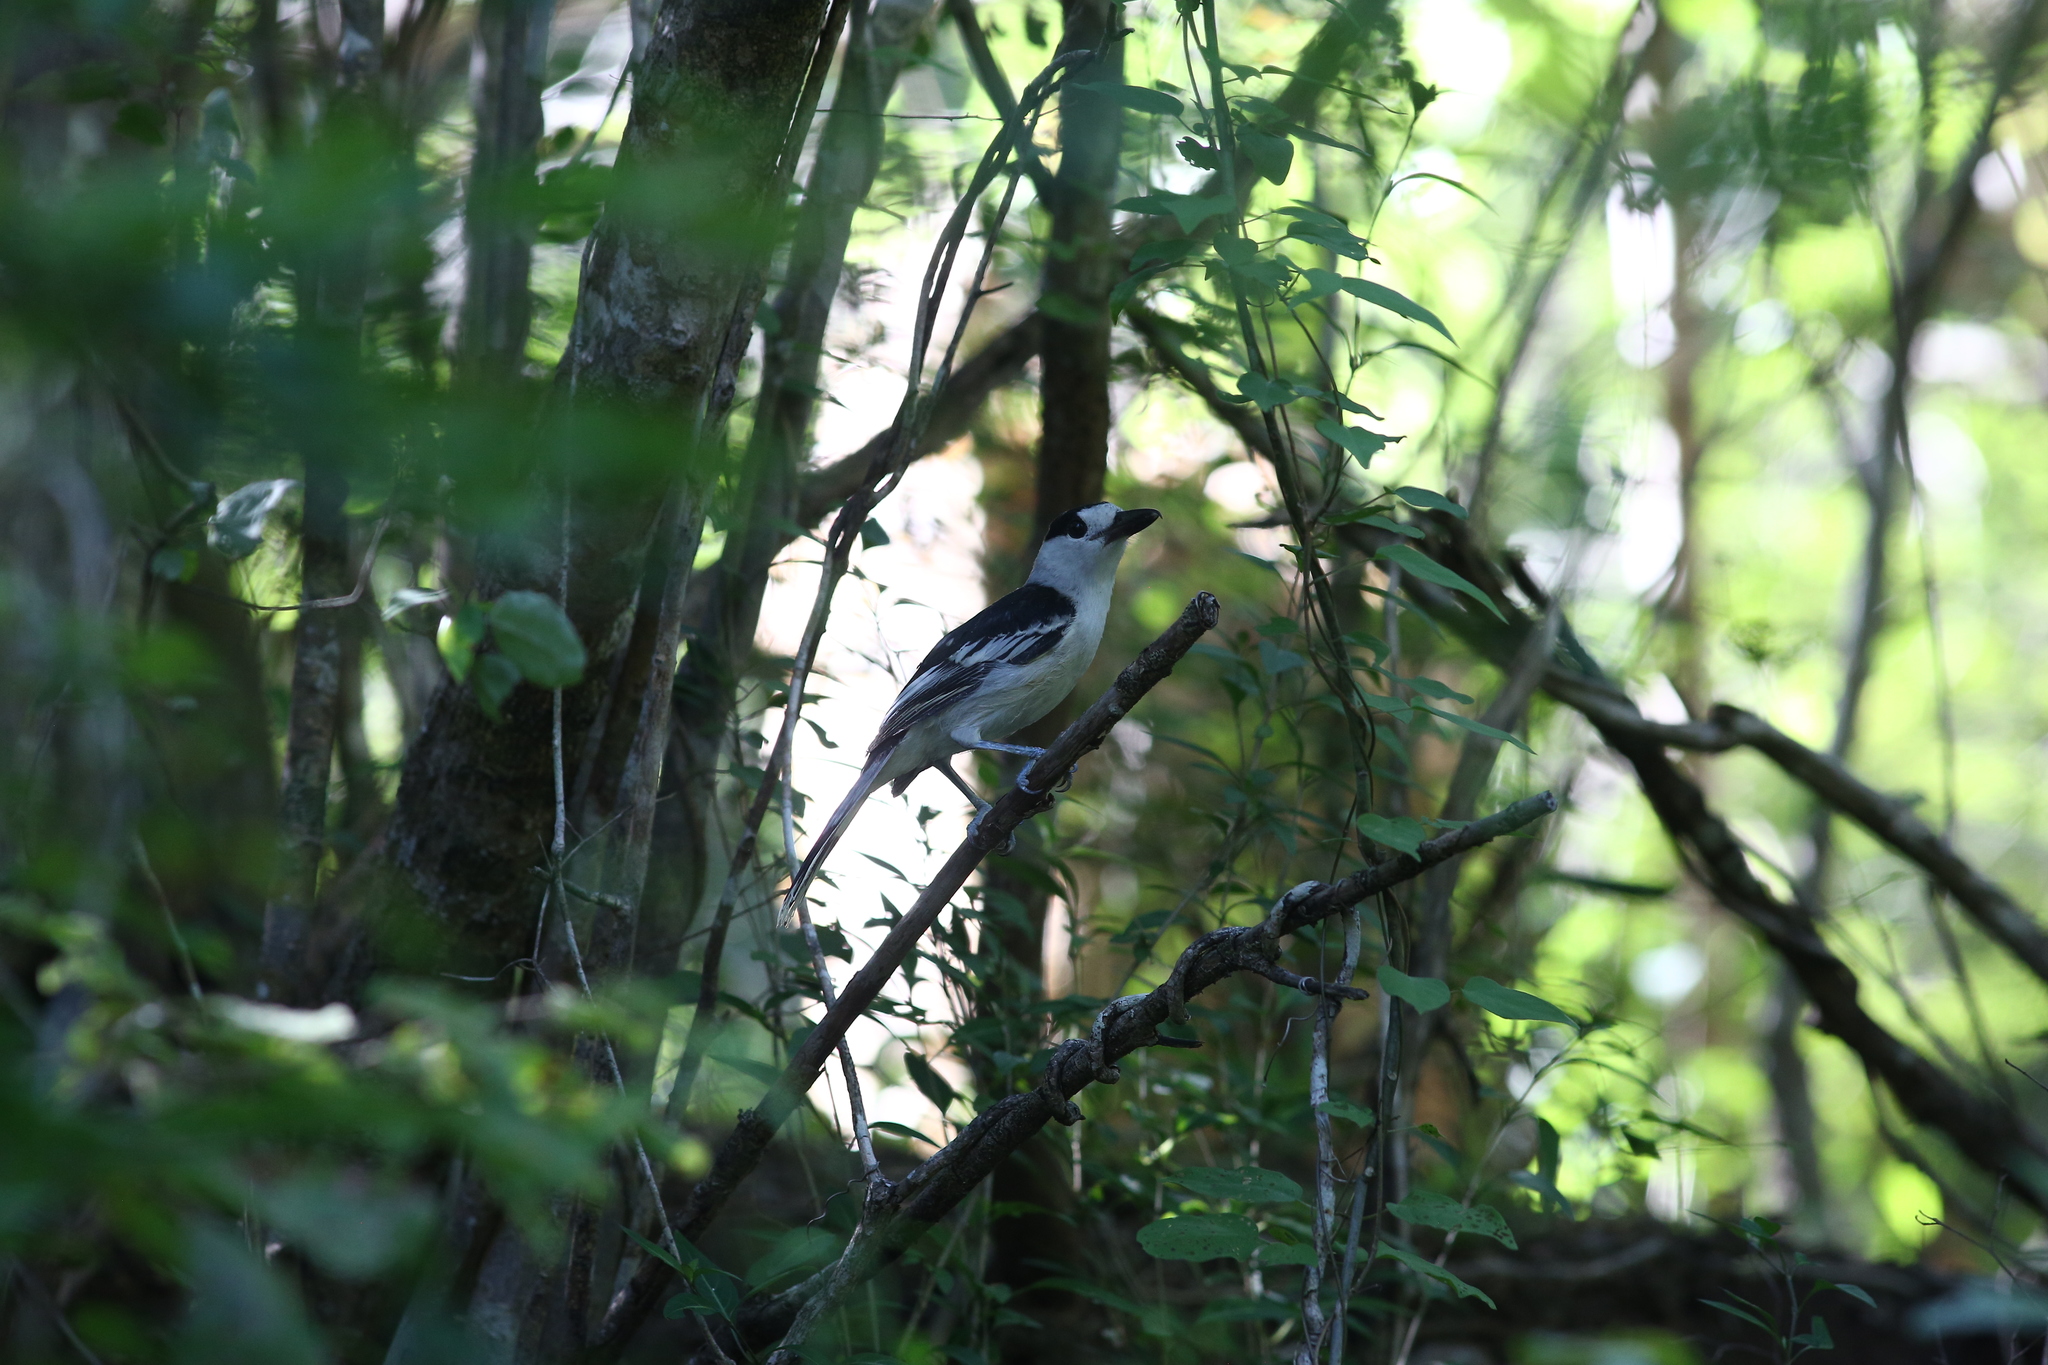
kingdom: Animalia
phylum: Chordata
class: Aves
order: Passeriformes
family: Vangidae
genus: Vanga
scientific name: Vanga curvirostris
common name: Hook-billed vanga
